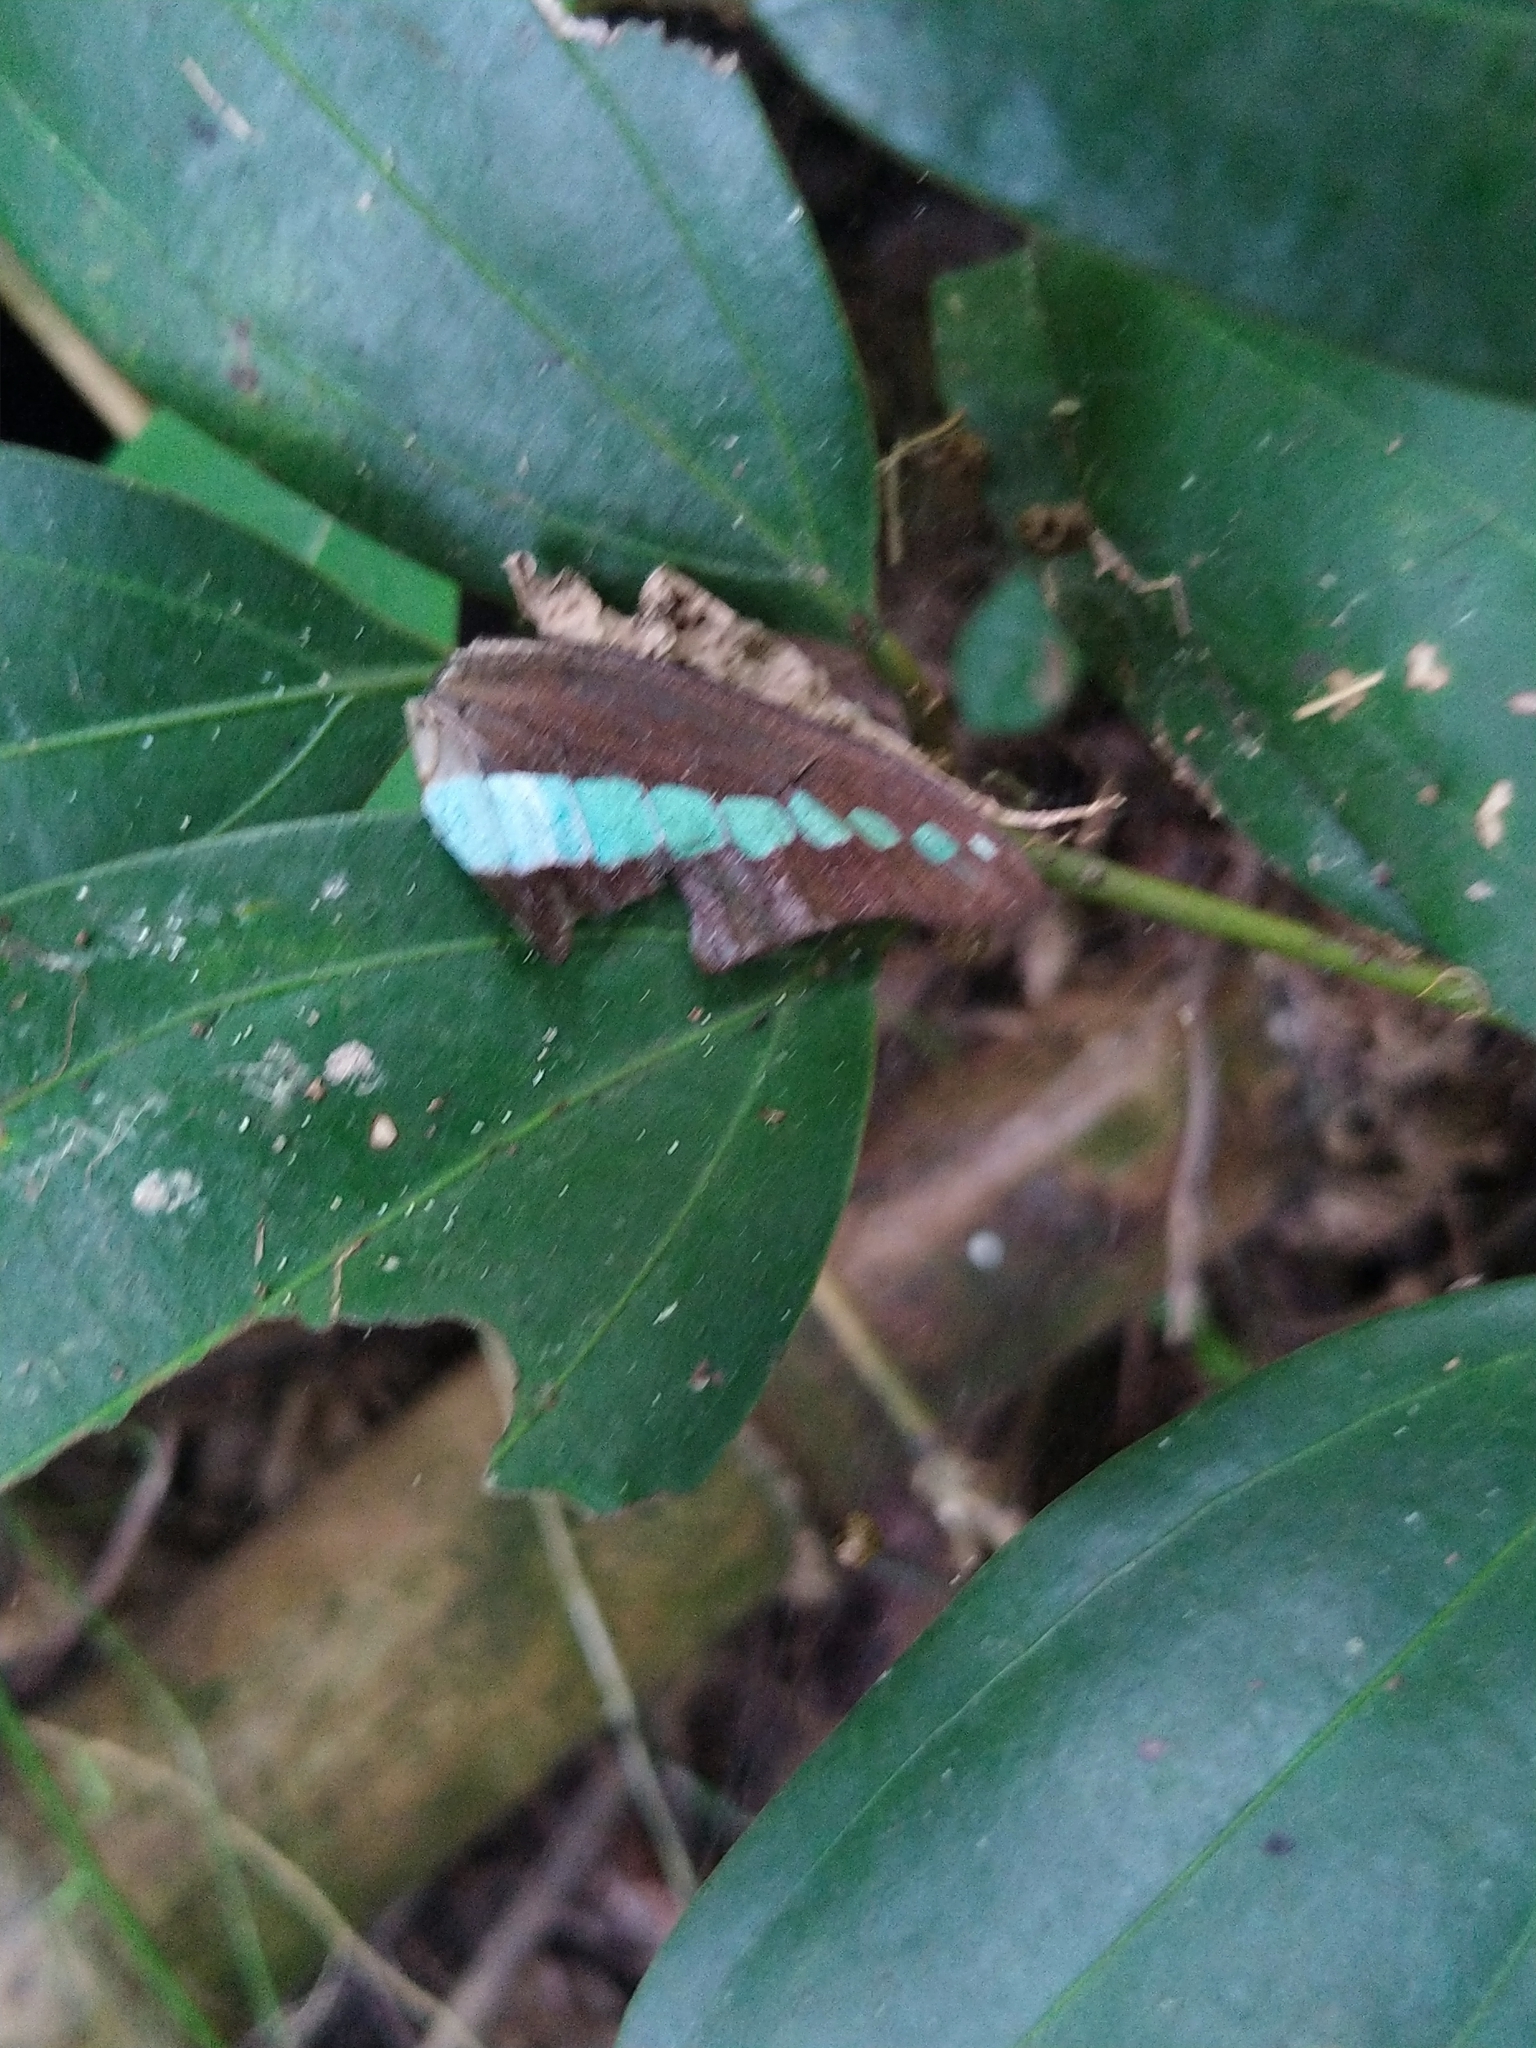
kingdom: Animalia
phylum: Arthropoda
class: Insecta
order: Lepidoptera
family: Papilionidae
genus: Graphium
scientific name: Graphium
